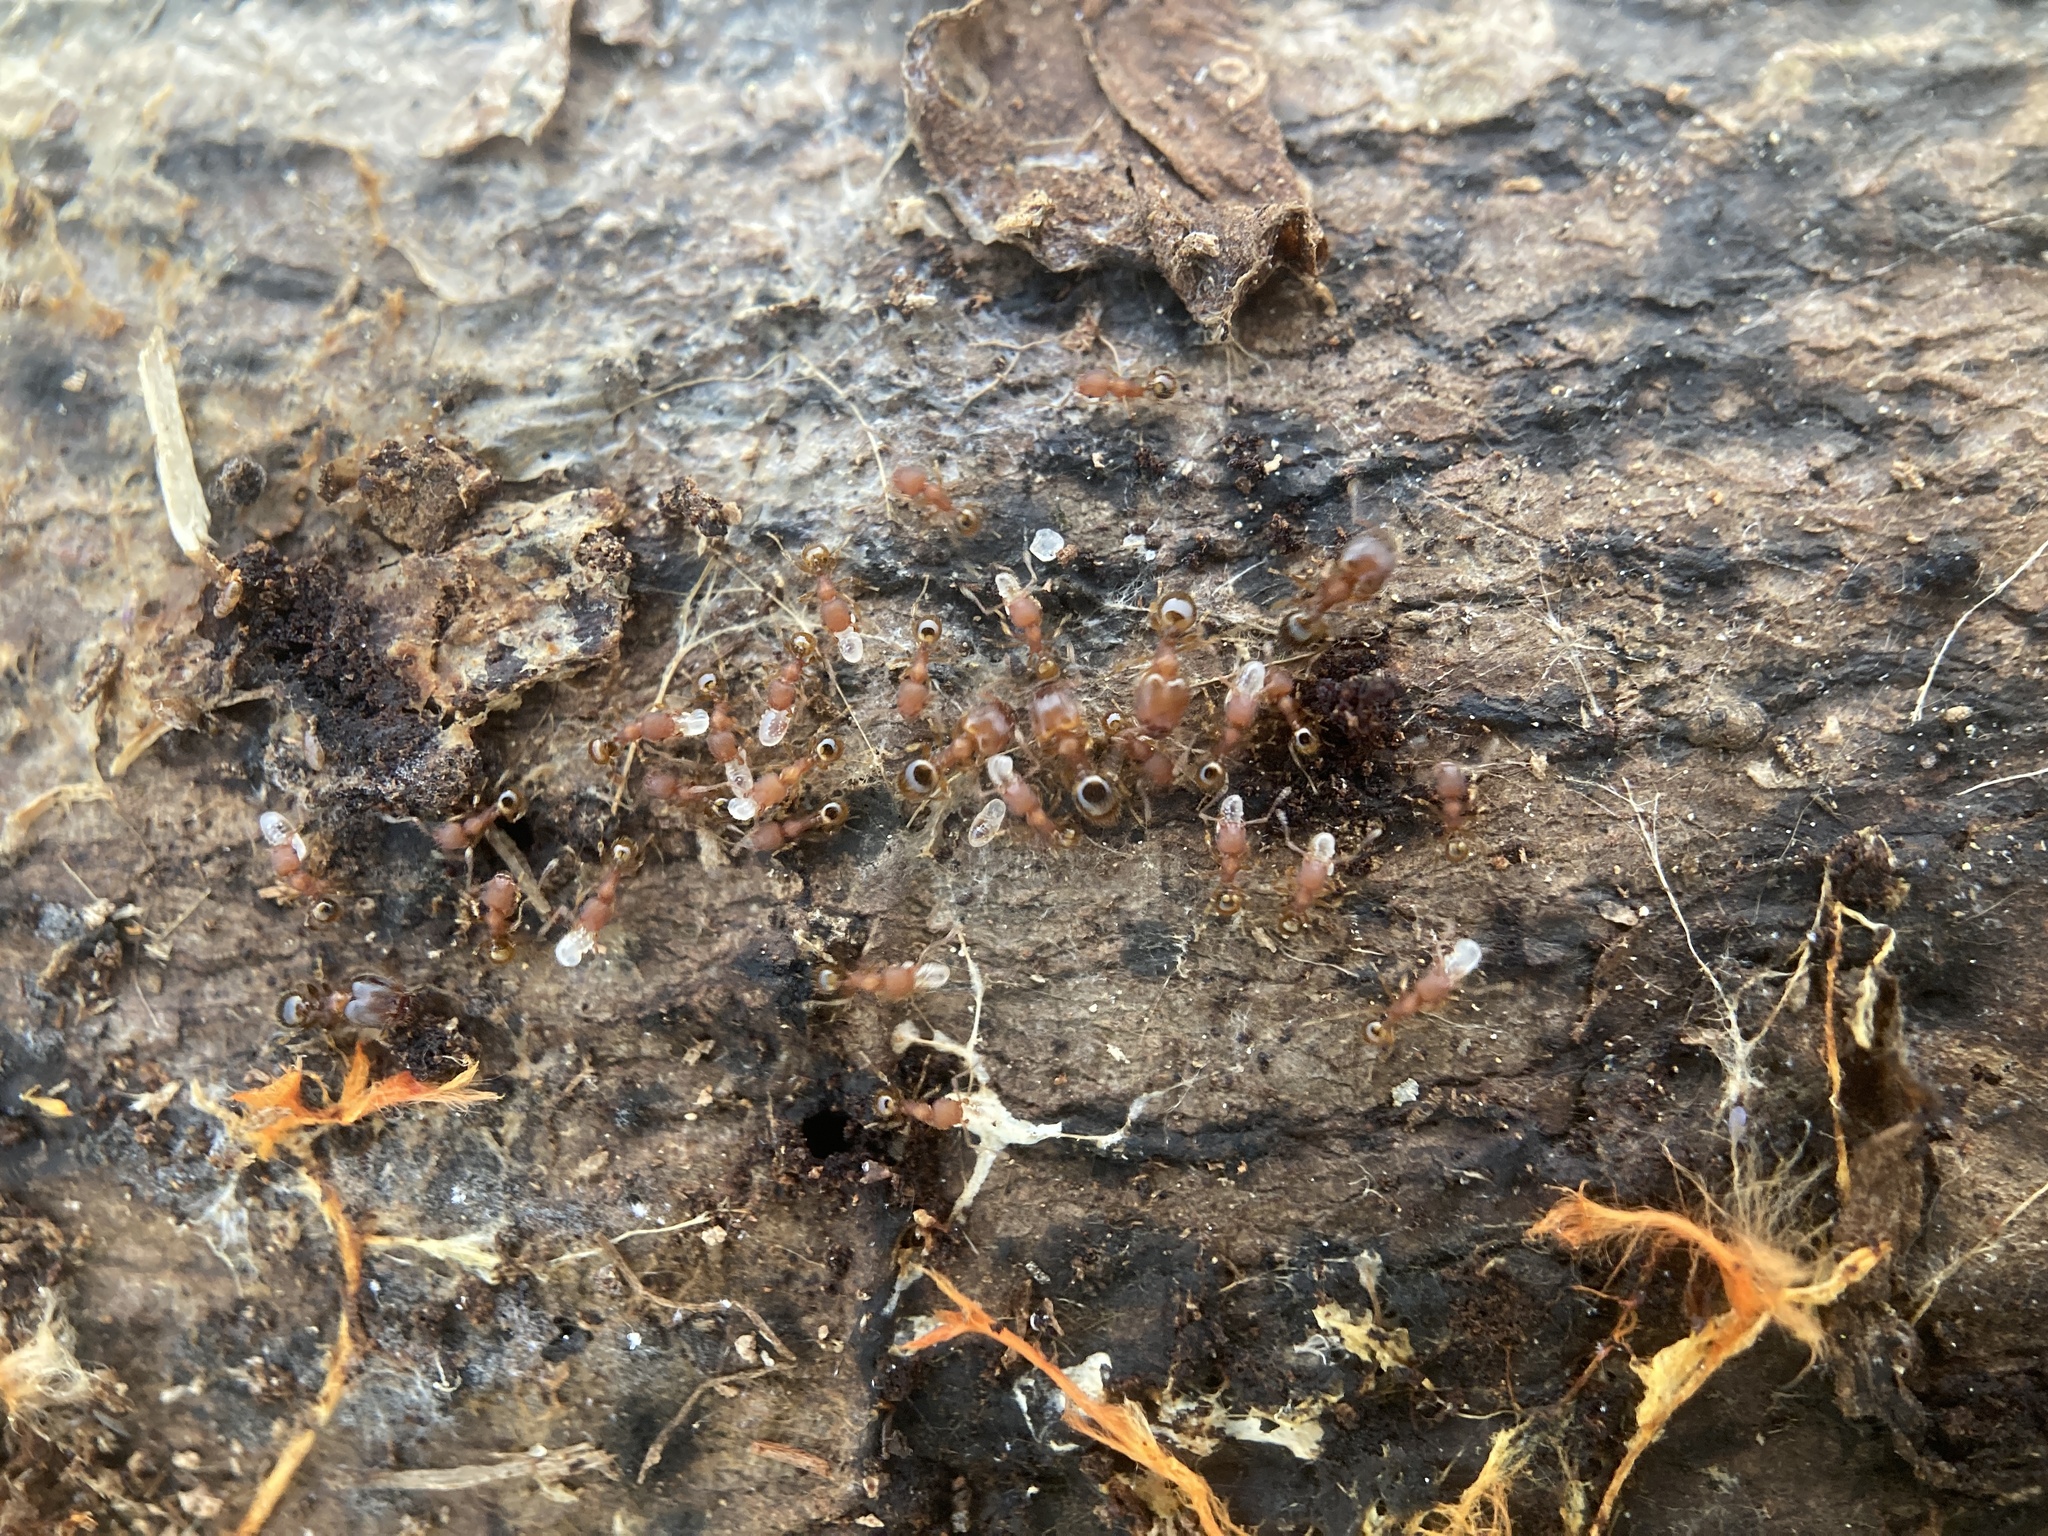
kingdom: Animalia
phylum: Arthropoda
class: Insecta
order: Hymenoptera
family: Formicidae
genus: Pheidole
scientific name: Pheidole navigans
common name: Navigating big-headed ant
